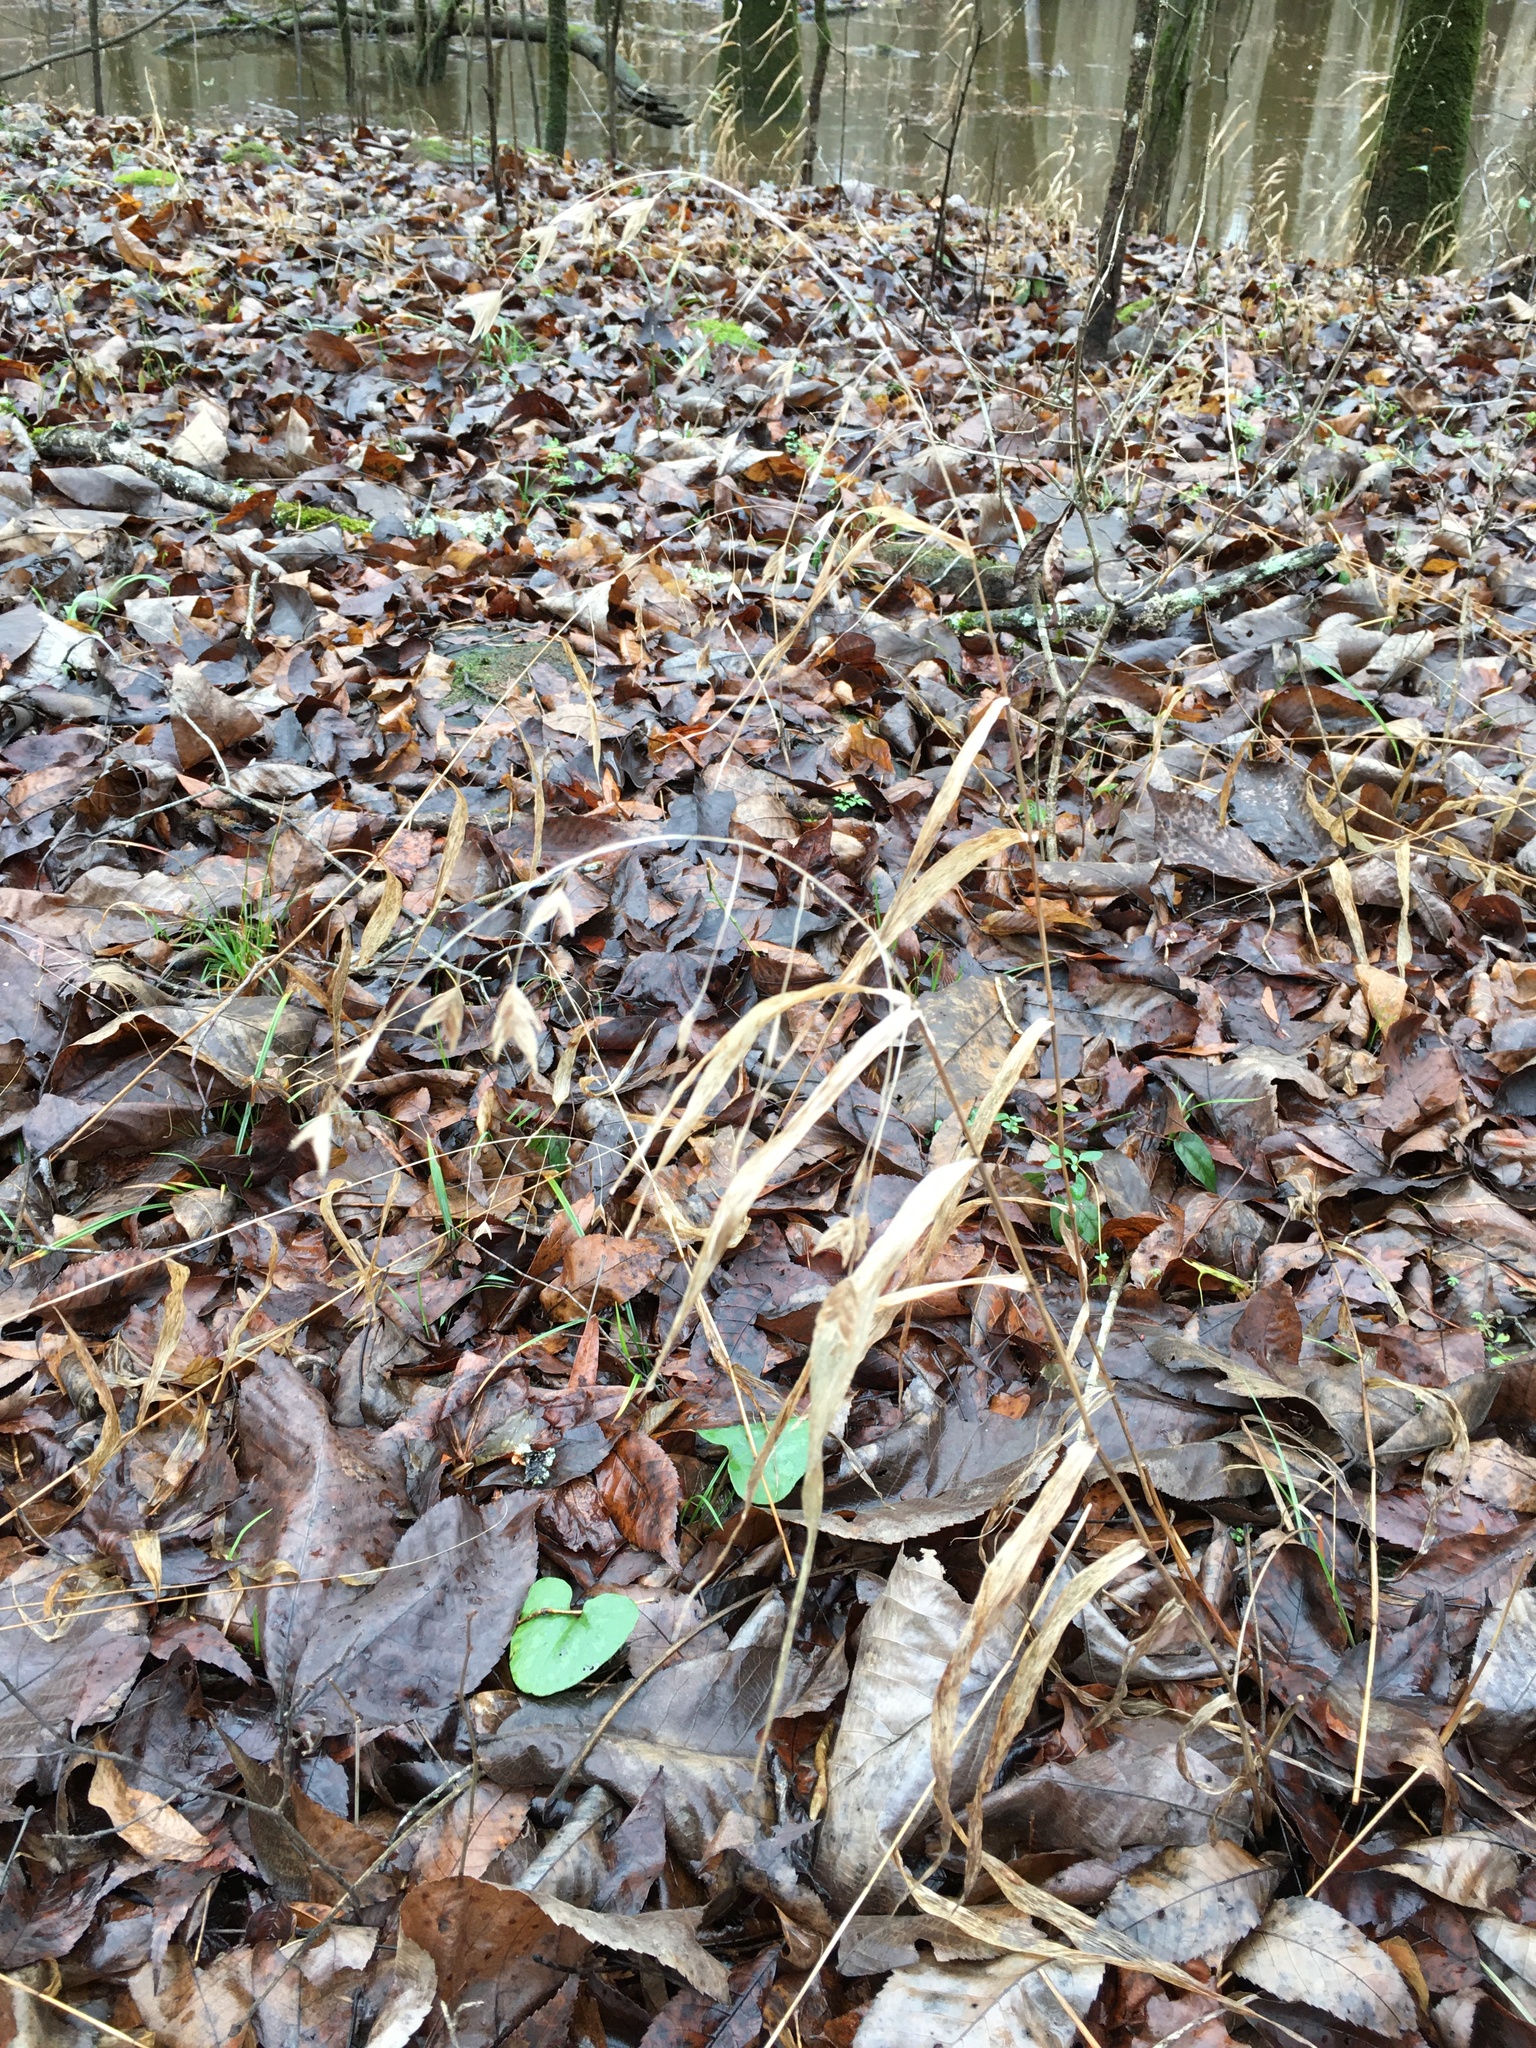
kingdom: Plantae
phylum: Tracheophyta
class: Liliopsida
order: Poales
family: Poaceae
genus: Chasmanthium
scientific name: Chasmanthium latifolium
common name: Broad-leaved chasmanthium
